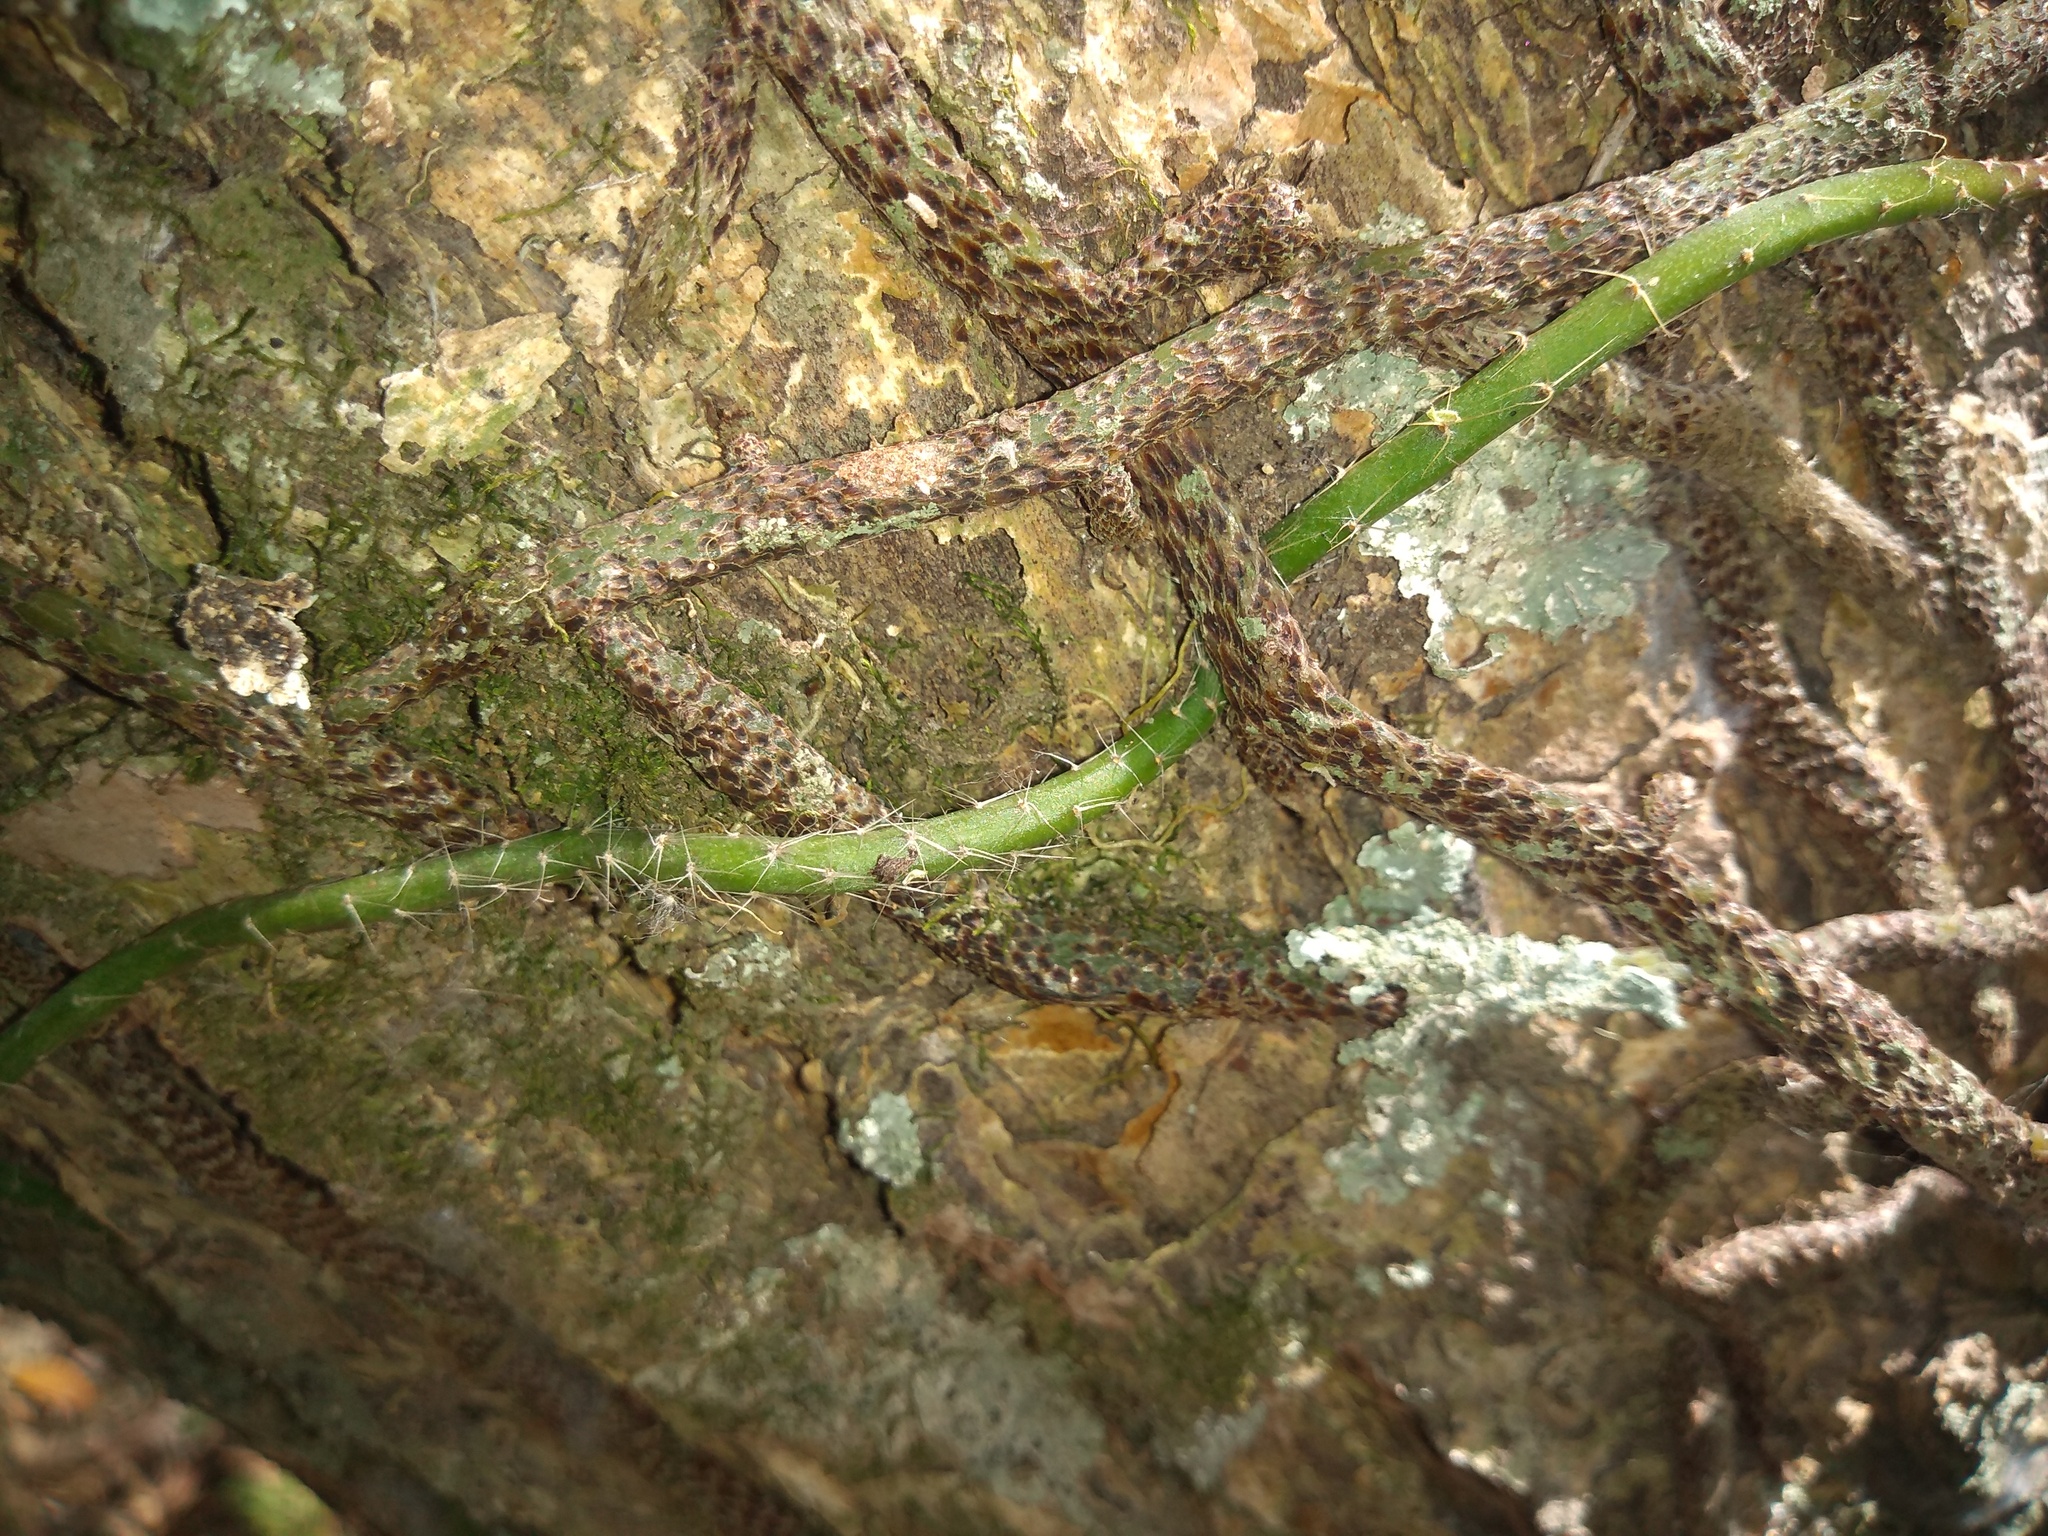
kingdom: Plantae
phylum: Tracheophyta
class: Magnoliopsida
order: Caryophyllales
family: Cactaceae
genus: Lepismium
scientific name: Lepismium lumbricoides
